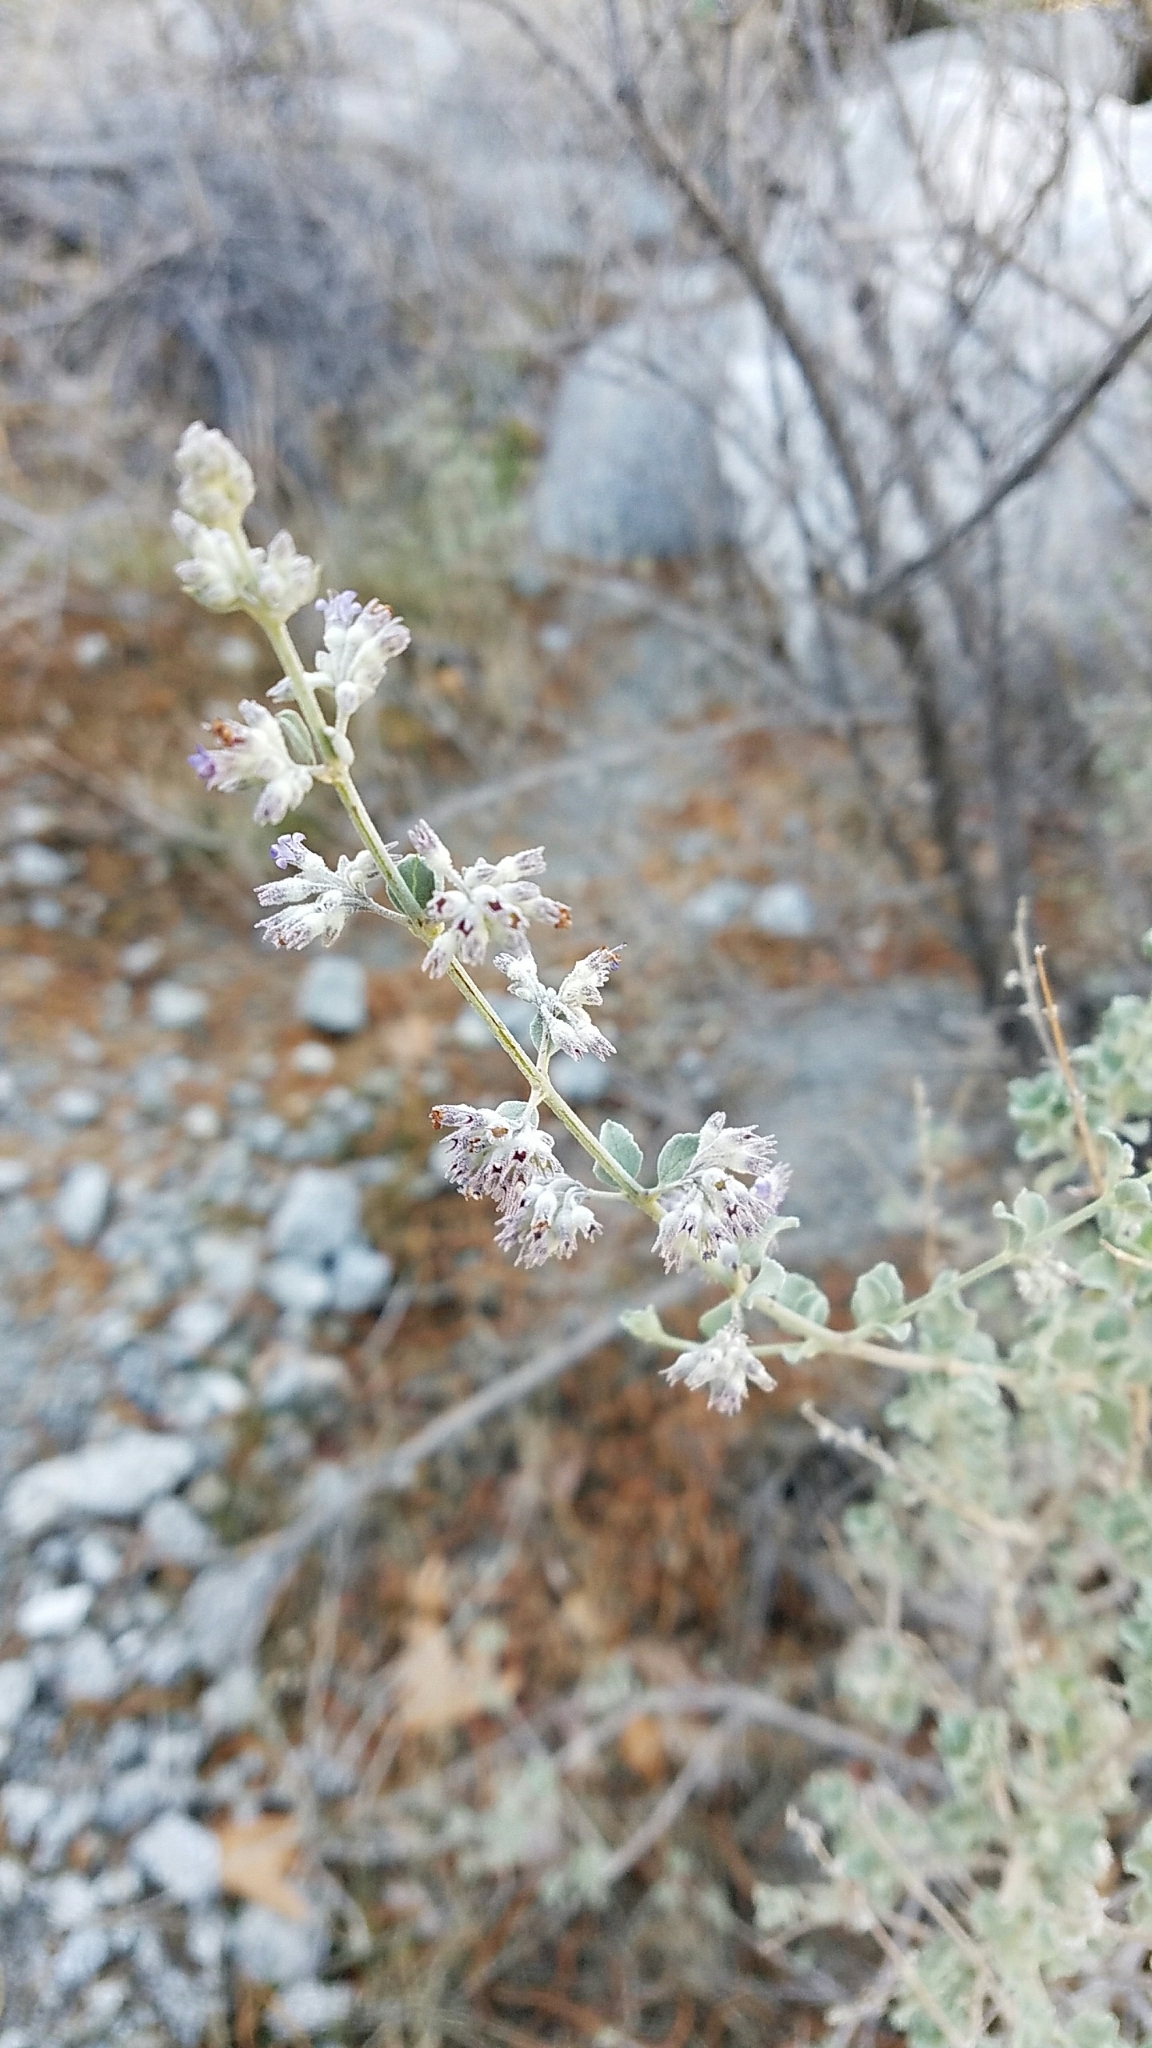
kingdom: Plantae
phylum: Tracheophyta
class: Magnoliopsida
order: Lamiales
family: Lamiaceae
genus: Condea
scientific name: Condea emoryi
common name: Chia
